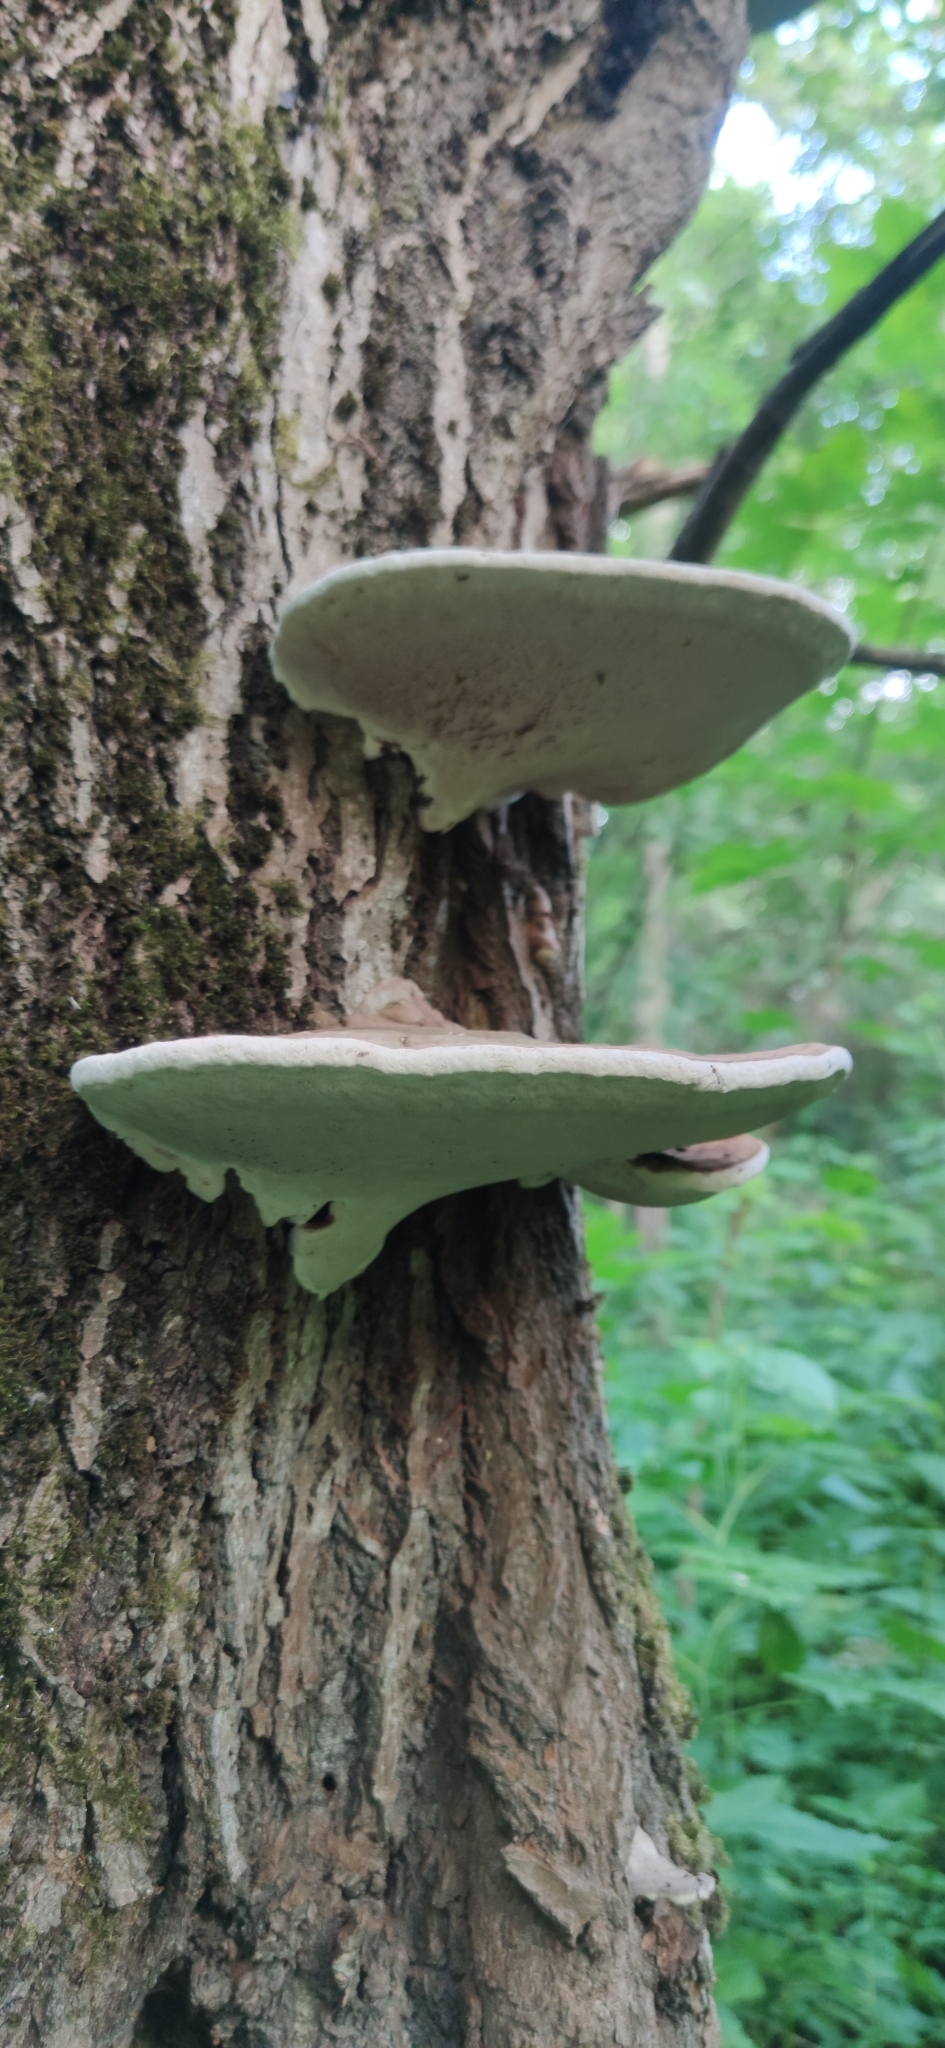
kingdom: Fungi
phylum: Basidiomycota
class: Agaricomycetes
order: Polyporales
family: Polyporaceae
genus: Ganoderma
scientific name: Ganoderma applanatum
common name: Artist's bracket
